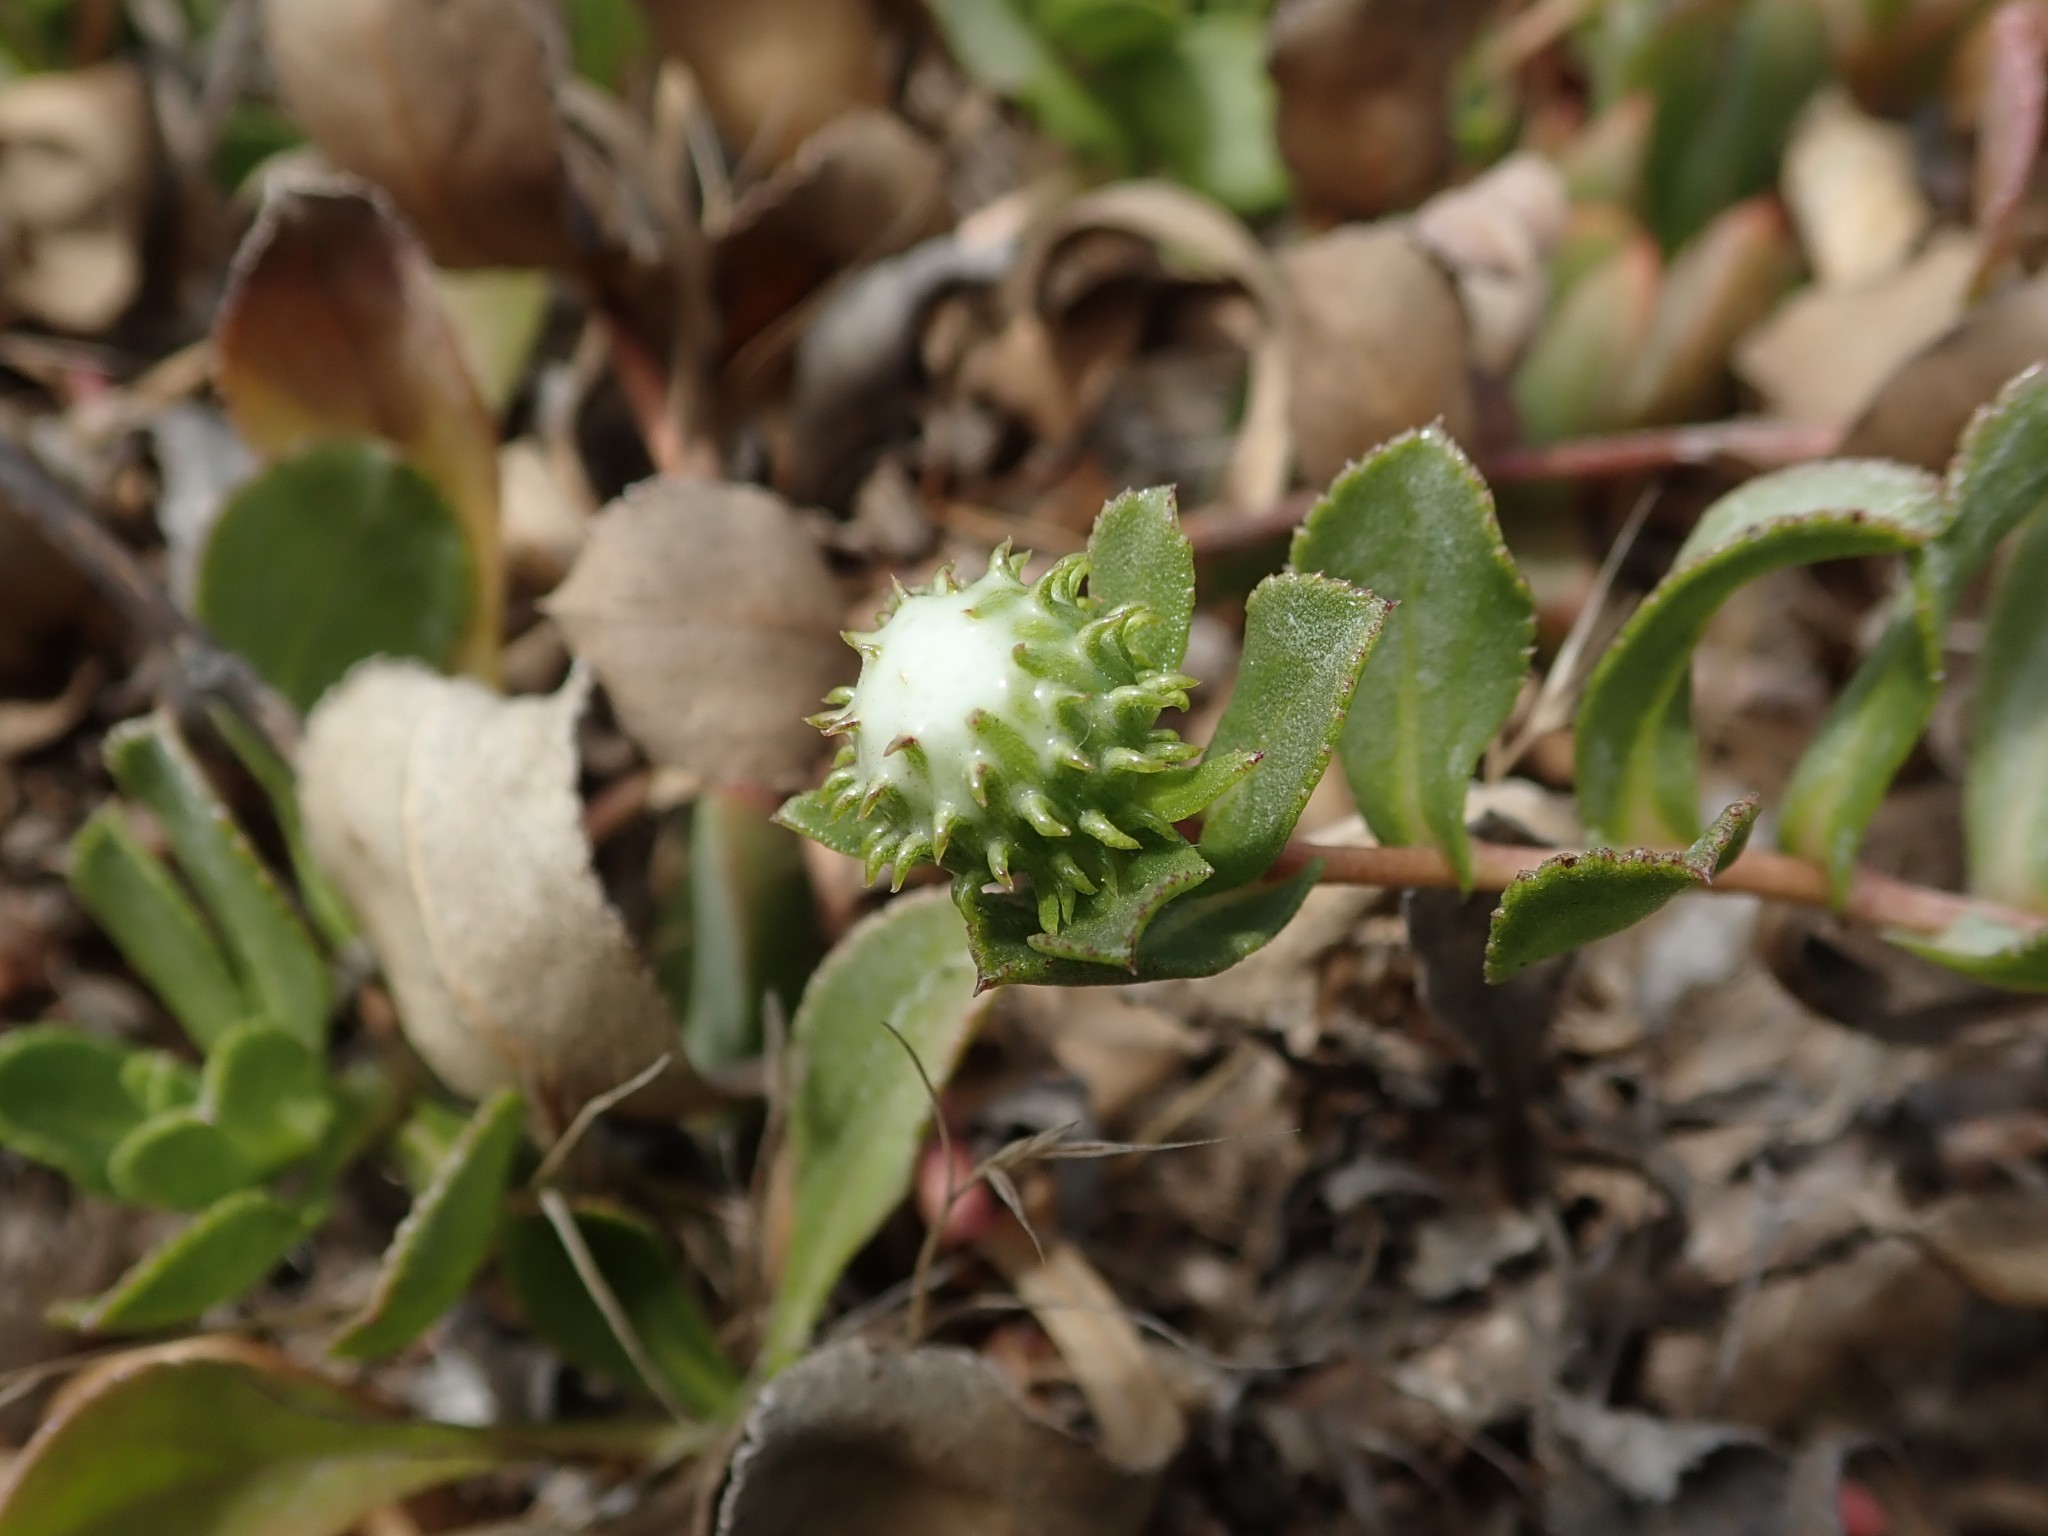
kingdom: Plantae
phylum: Tracheophyta
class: Magnoliopsida
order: Asterales
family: Asteraceae
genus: Grindelia
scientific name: Grindelia hirsutula
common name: Hairy gumweed
